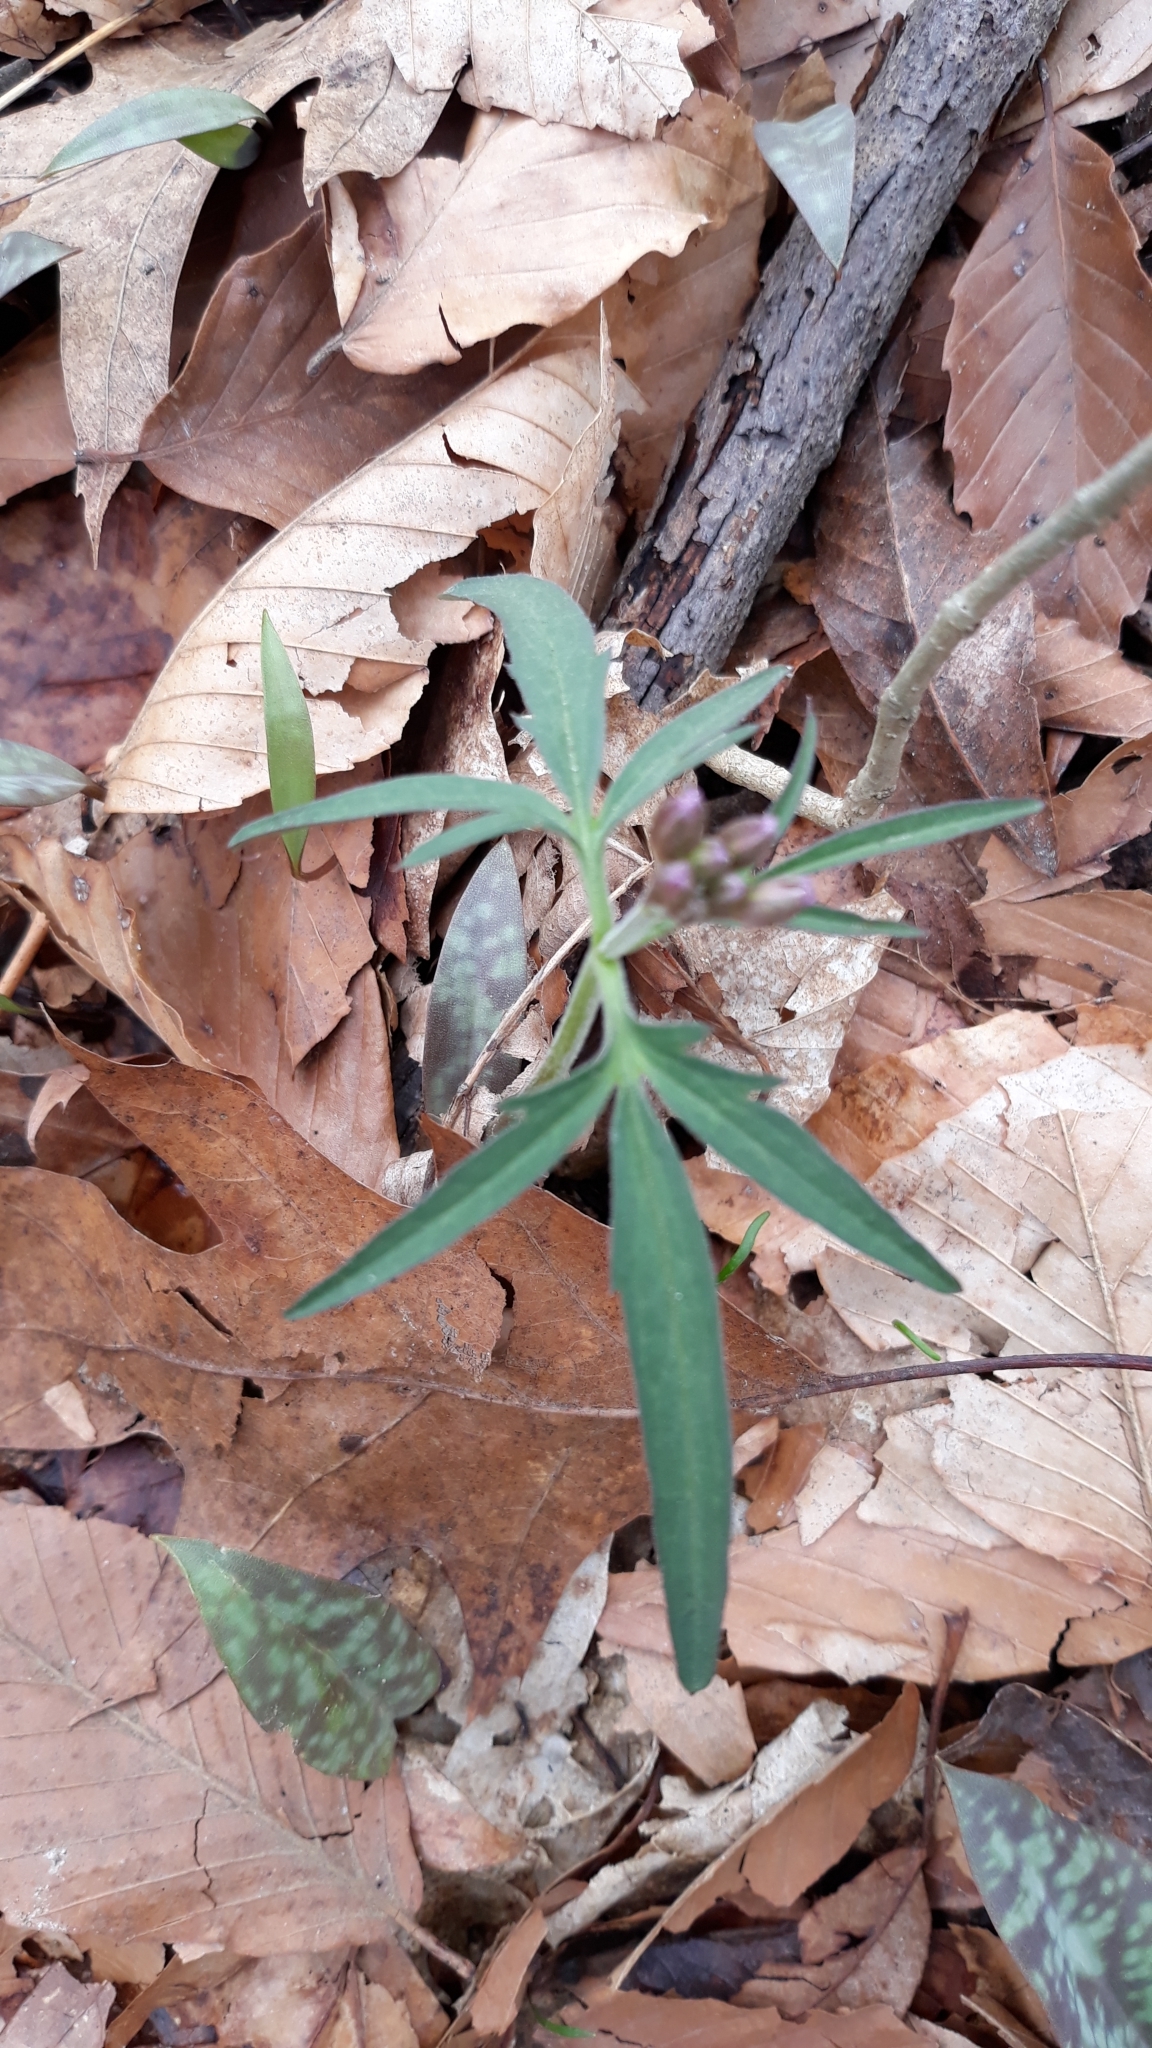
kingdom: Plantae
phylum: Tracheophyta
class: Magnoliopsida
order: Brassicales
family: Brassicaceae
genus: Cardamine
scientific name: Cardamine concatenata
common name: Cut-leaf toothcup
